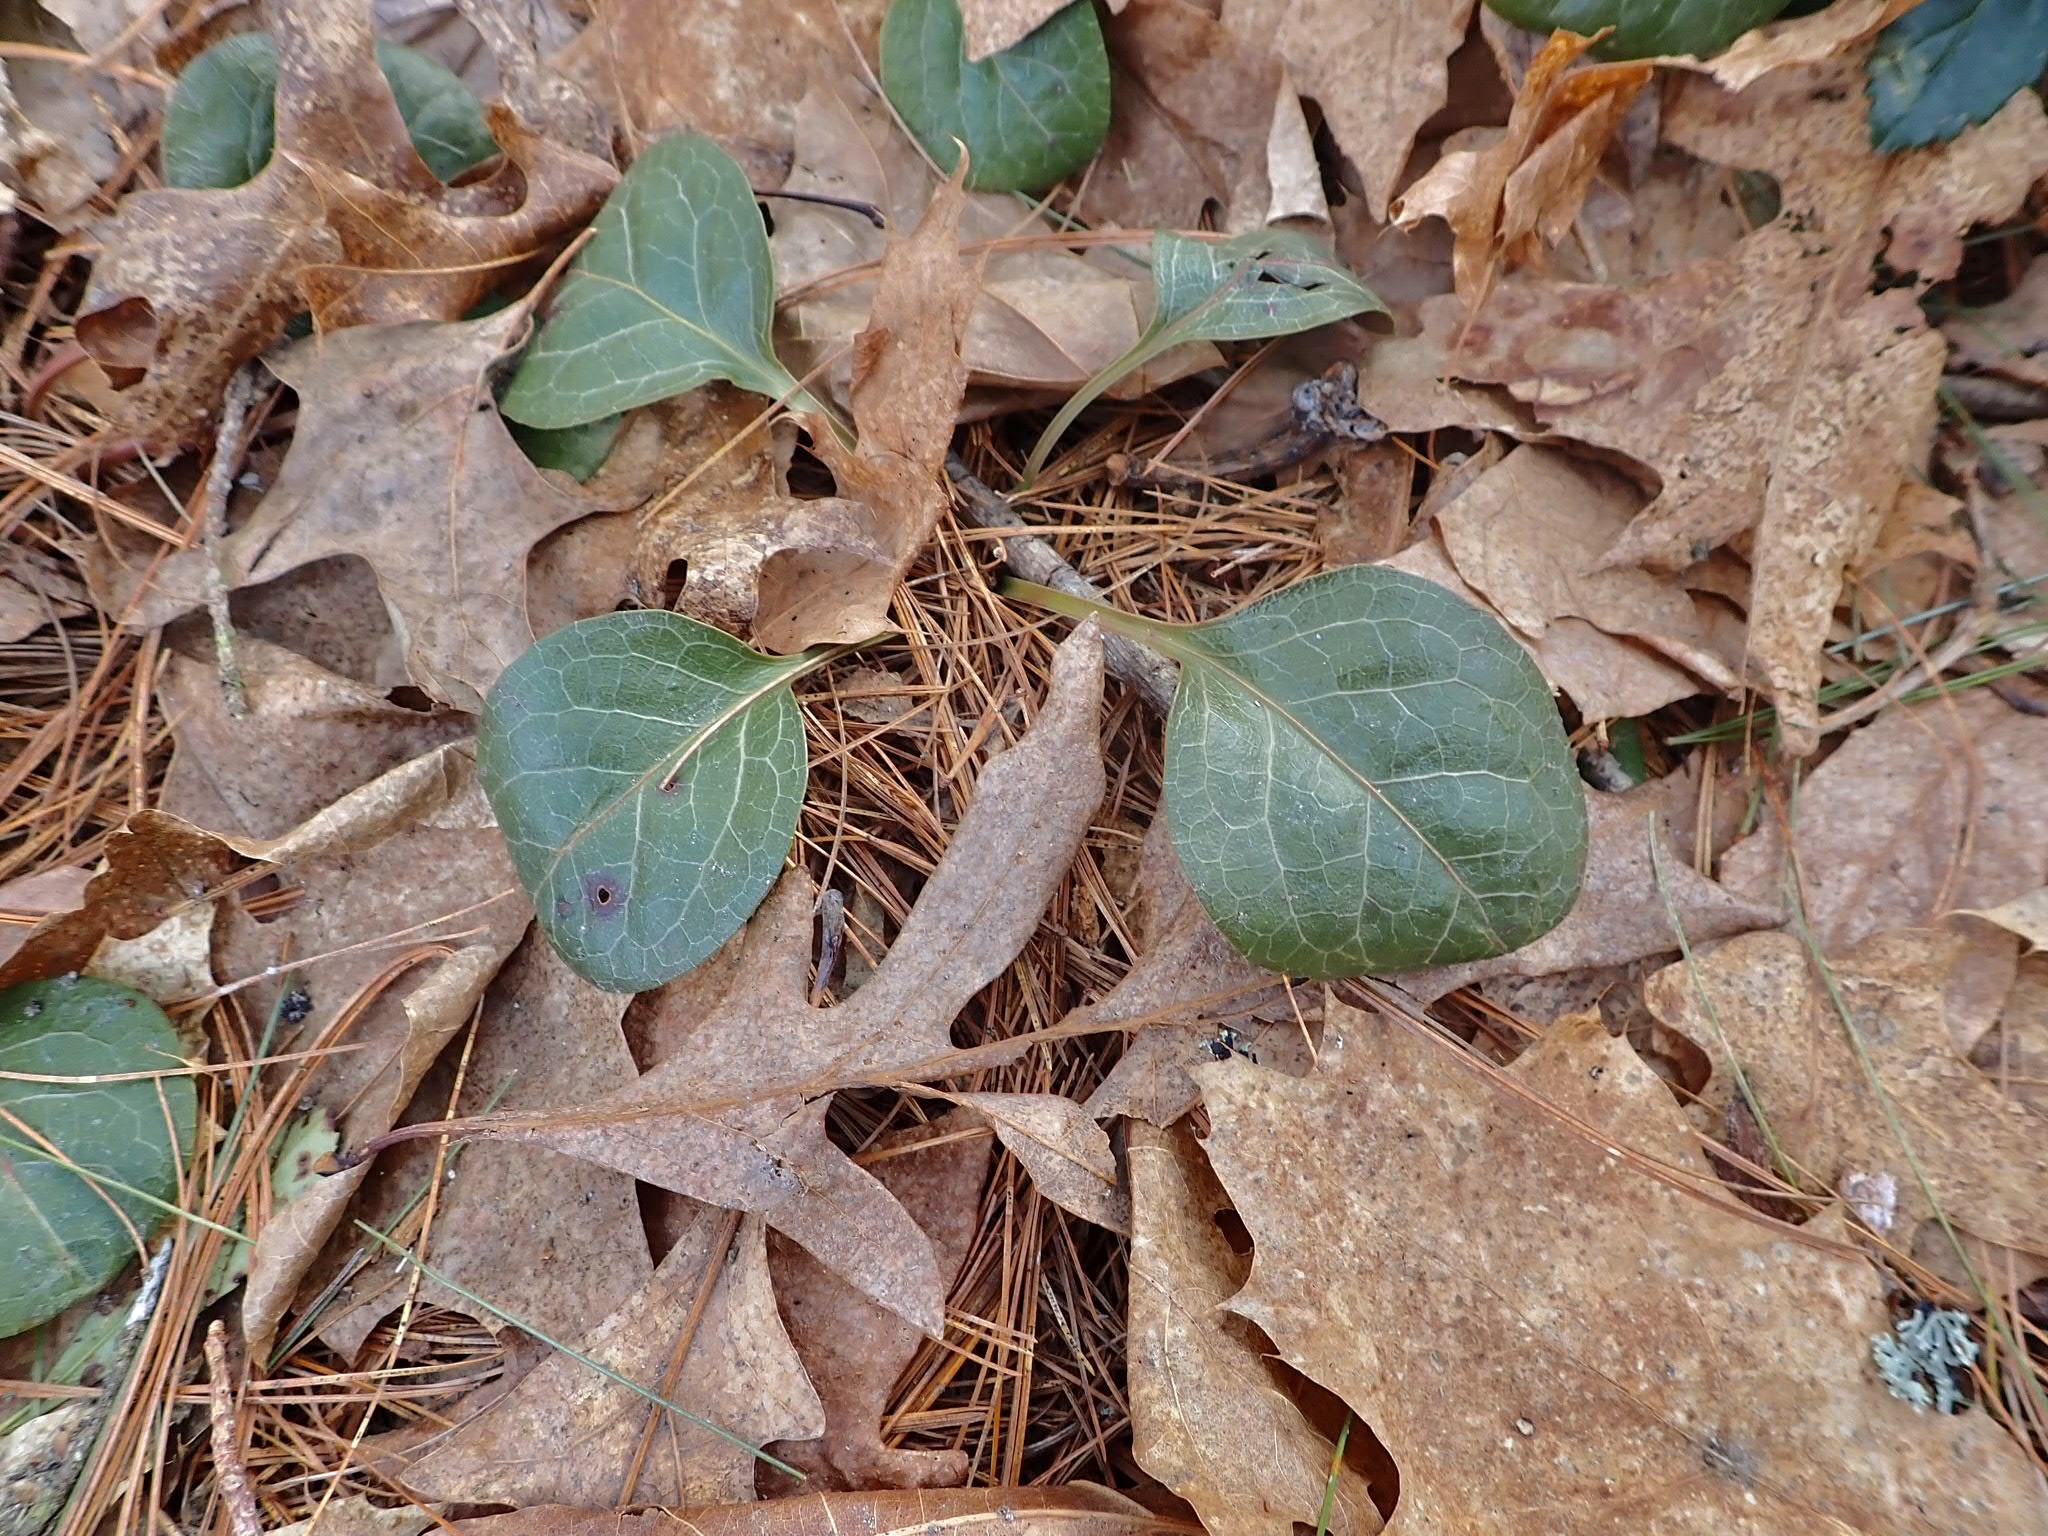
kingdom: Plantae
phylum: Tracheophyta
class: Magnoliopsida
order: Ericales
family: Ericaceae
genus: Pyrola
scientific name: Pyrola americana
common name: American wintergreen
